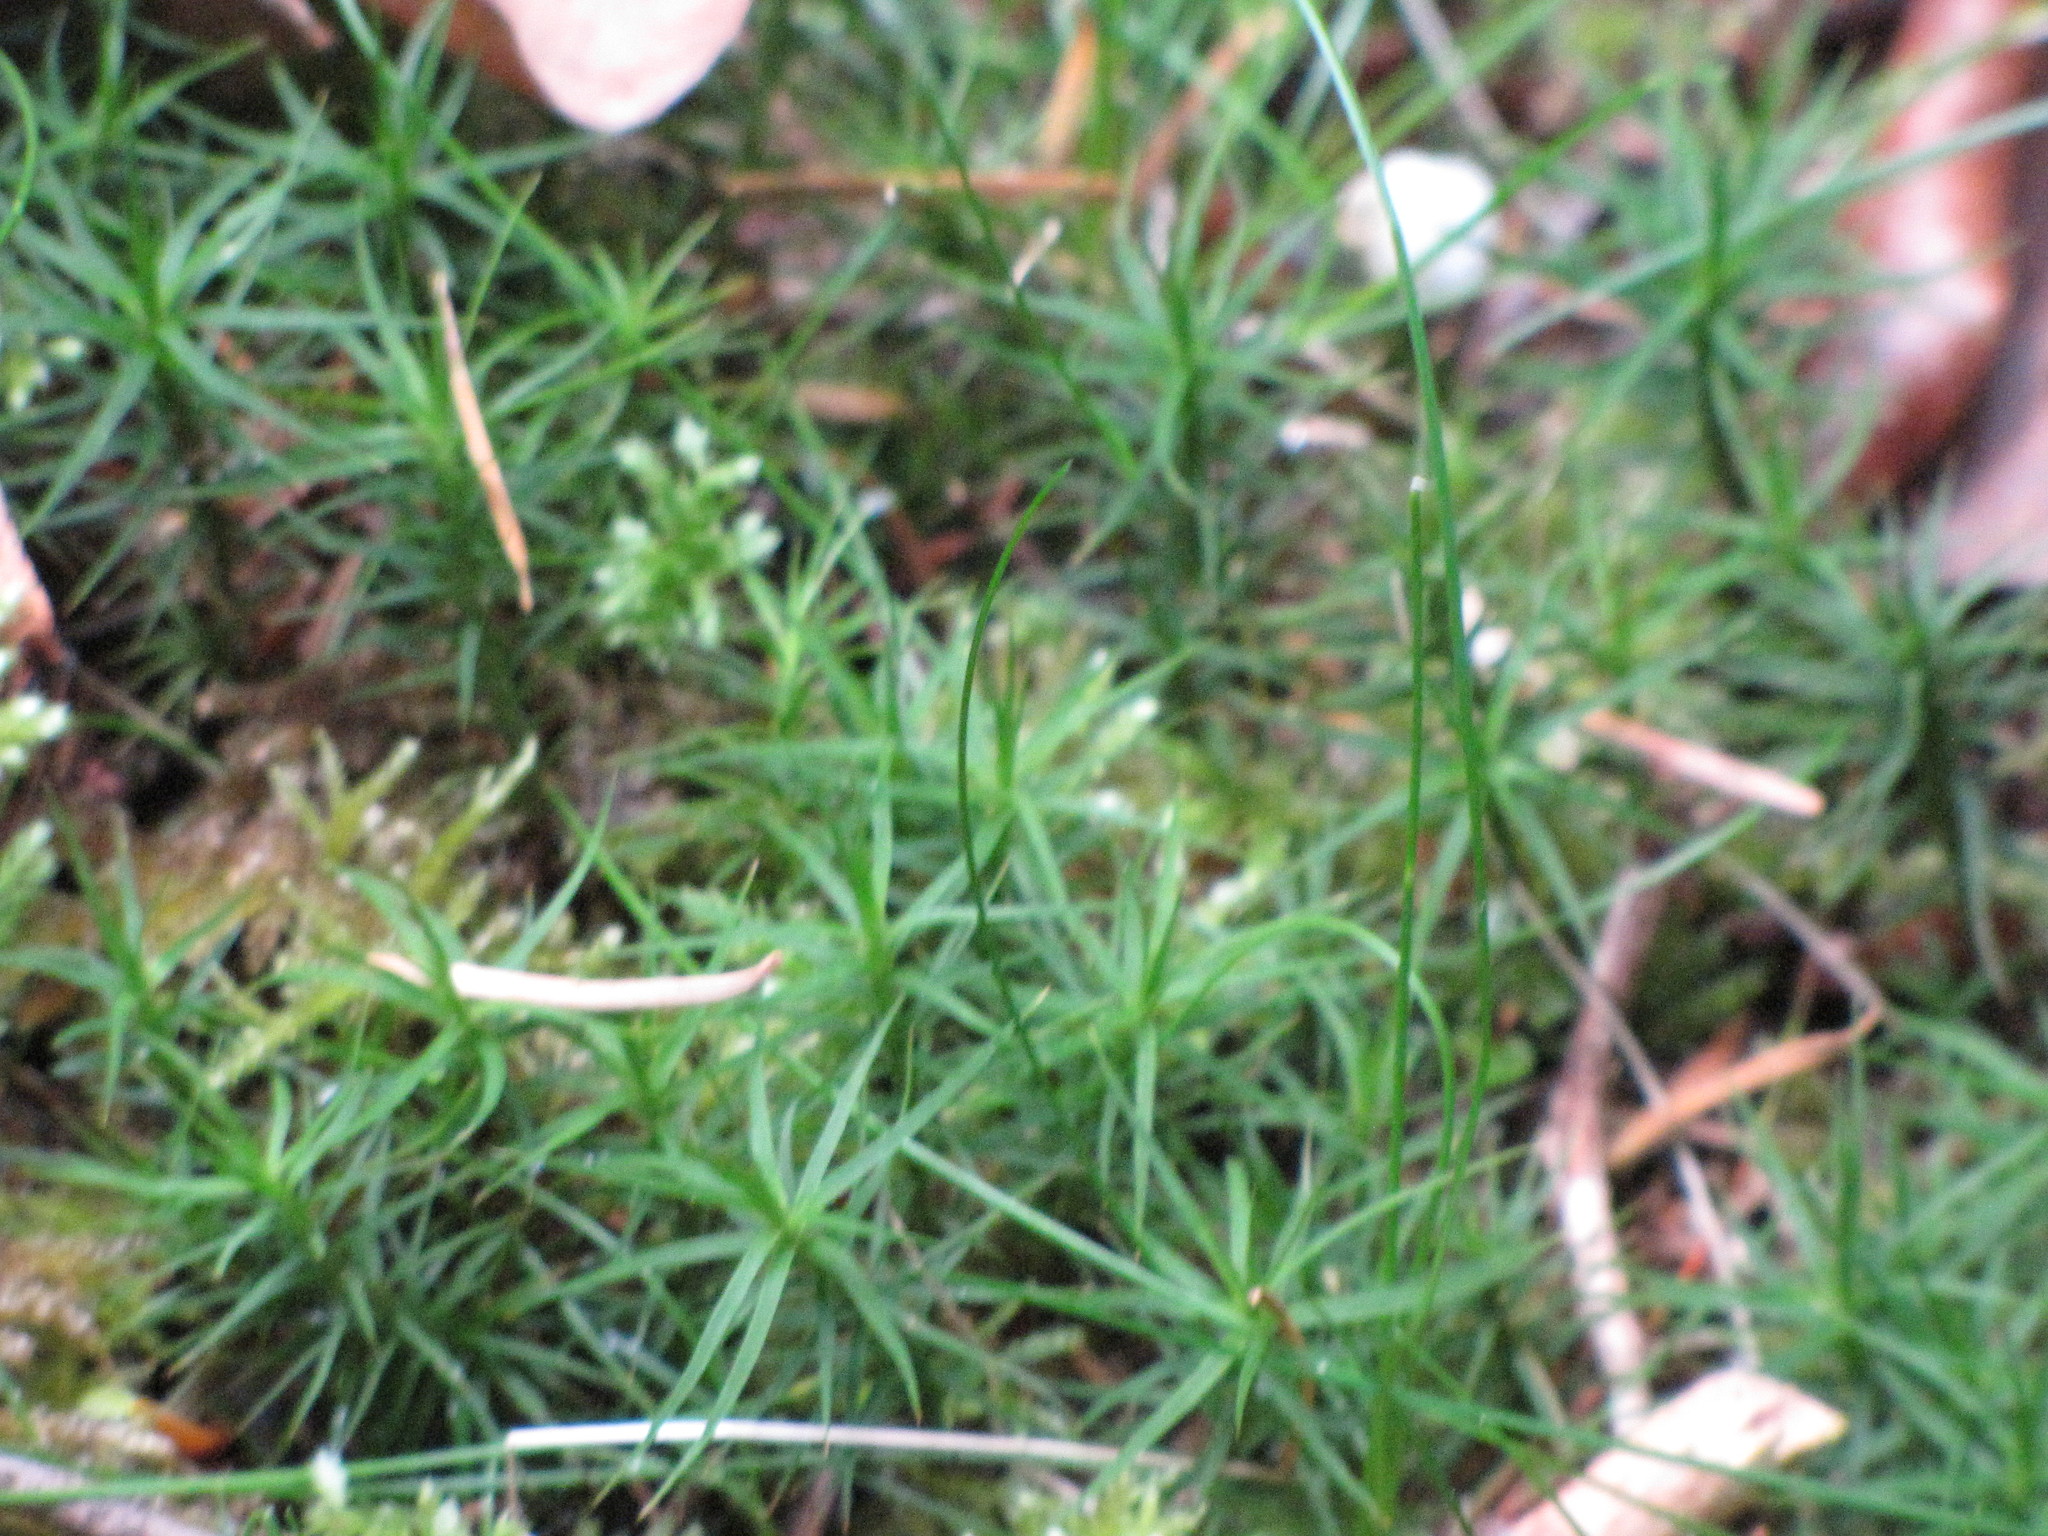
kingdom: Plantae
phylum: Bryophyta
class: Polytrichopsida
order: Polytrichales
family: Polytrichaceae
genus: Polytrichastrum
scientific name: Polytrichastrum alpinum
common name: Alpine haircap
